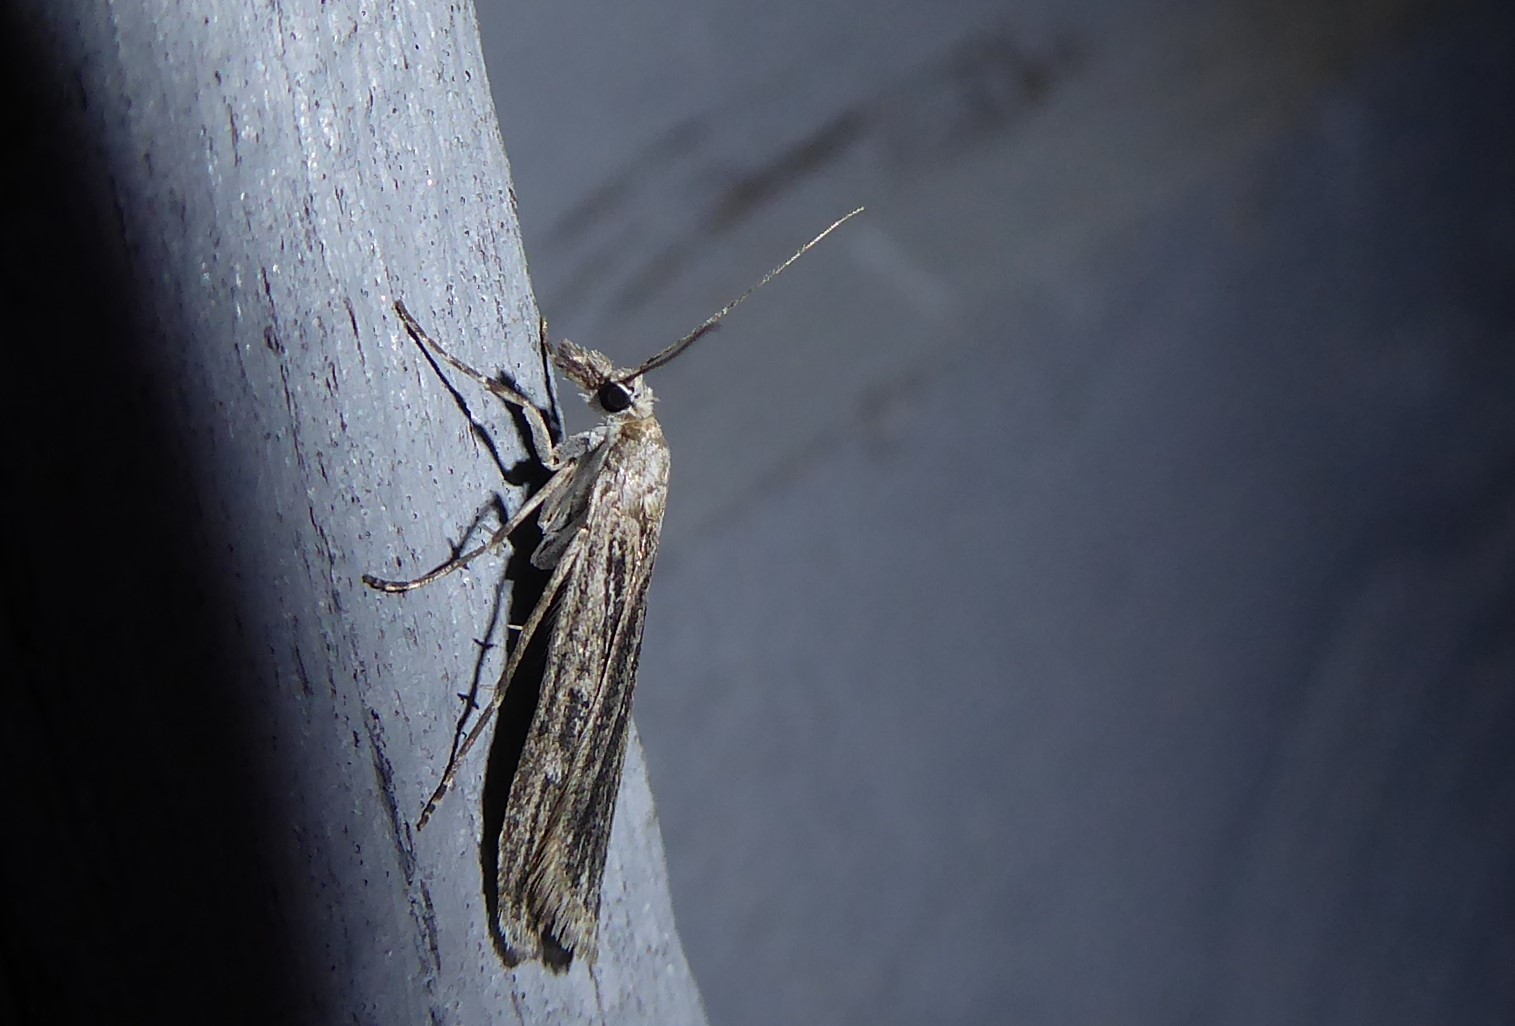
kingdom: Animalia
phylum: Arthropoda
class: Insecta
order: Lepidoptera
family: Crambidae
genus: Eudonia
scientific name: Eudonia atmogramma
